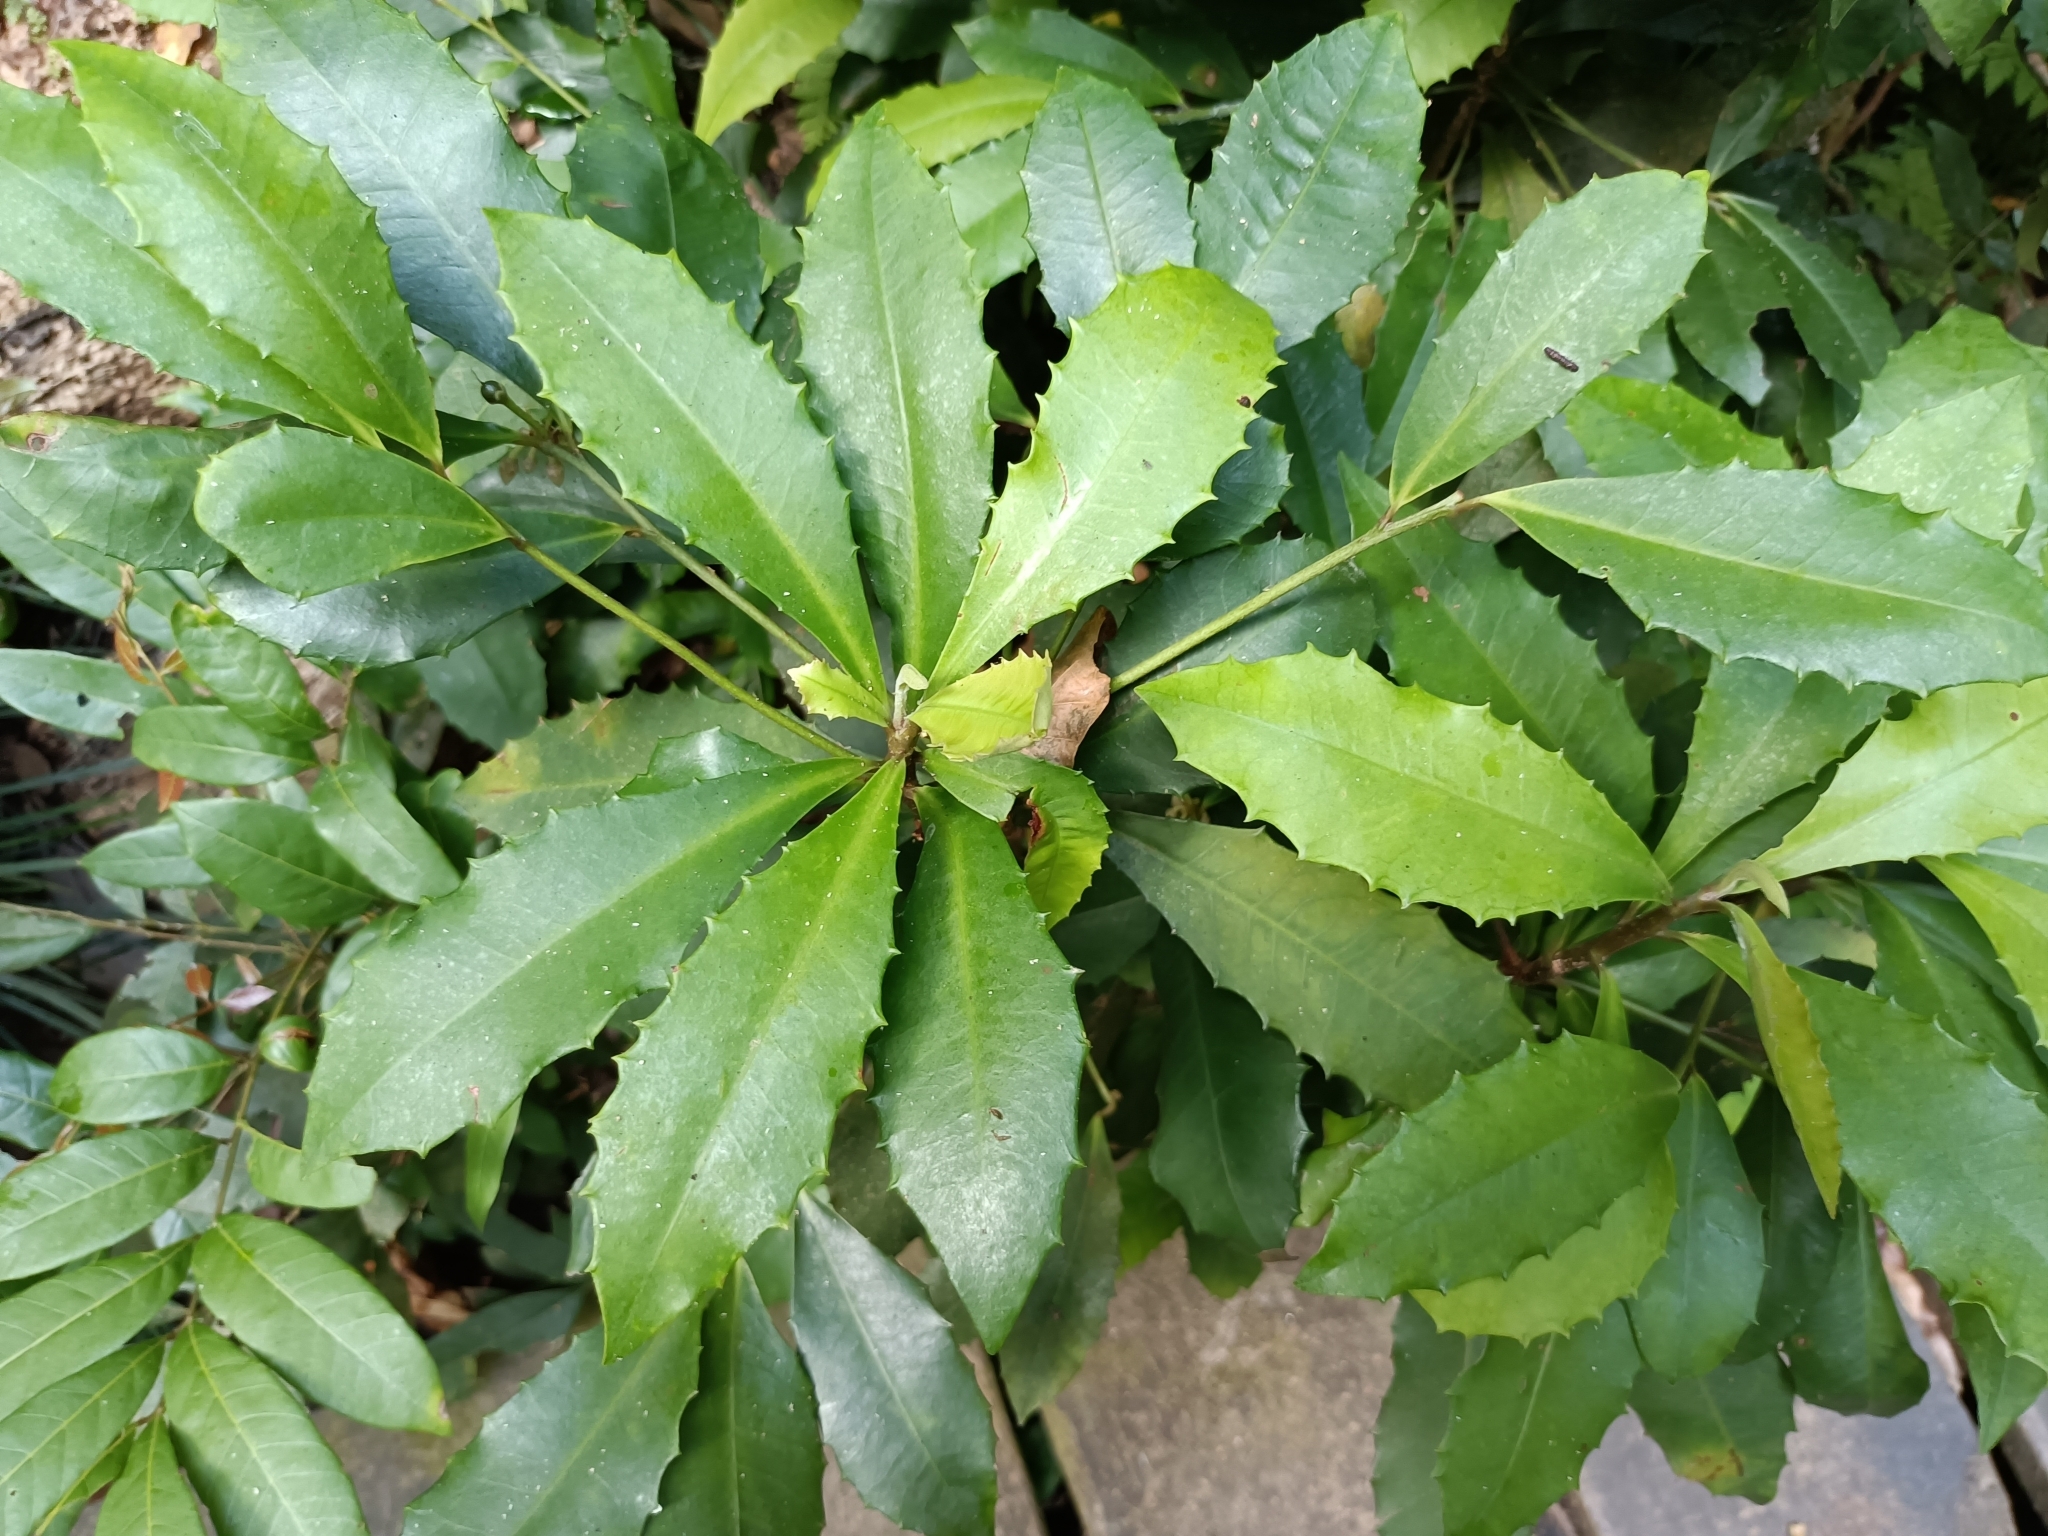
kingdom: Plantae
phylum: Tracheophyta
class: Magnoliopsida
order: Ericales
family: Primulaceae
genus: Ardisia
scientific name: Ardisia cornudentata
